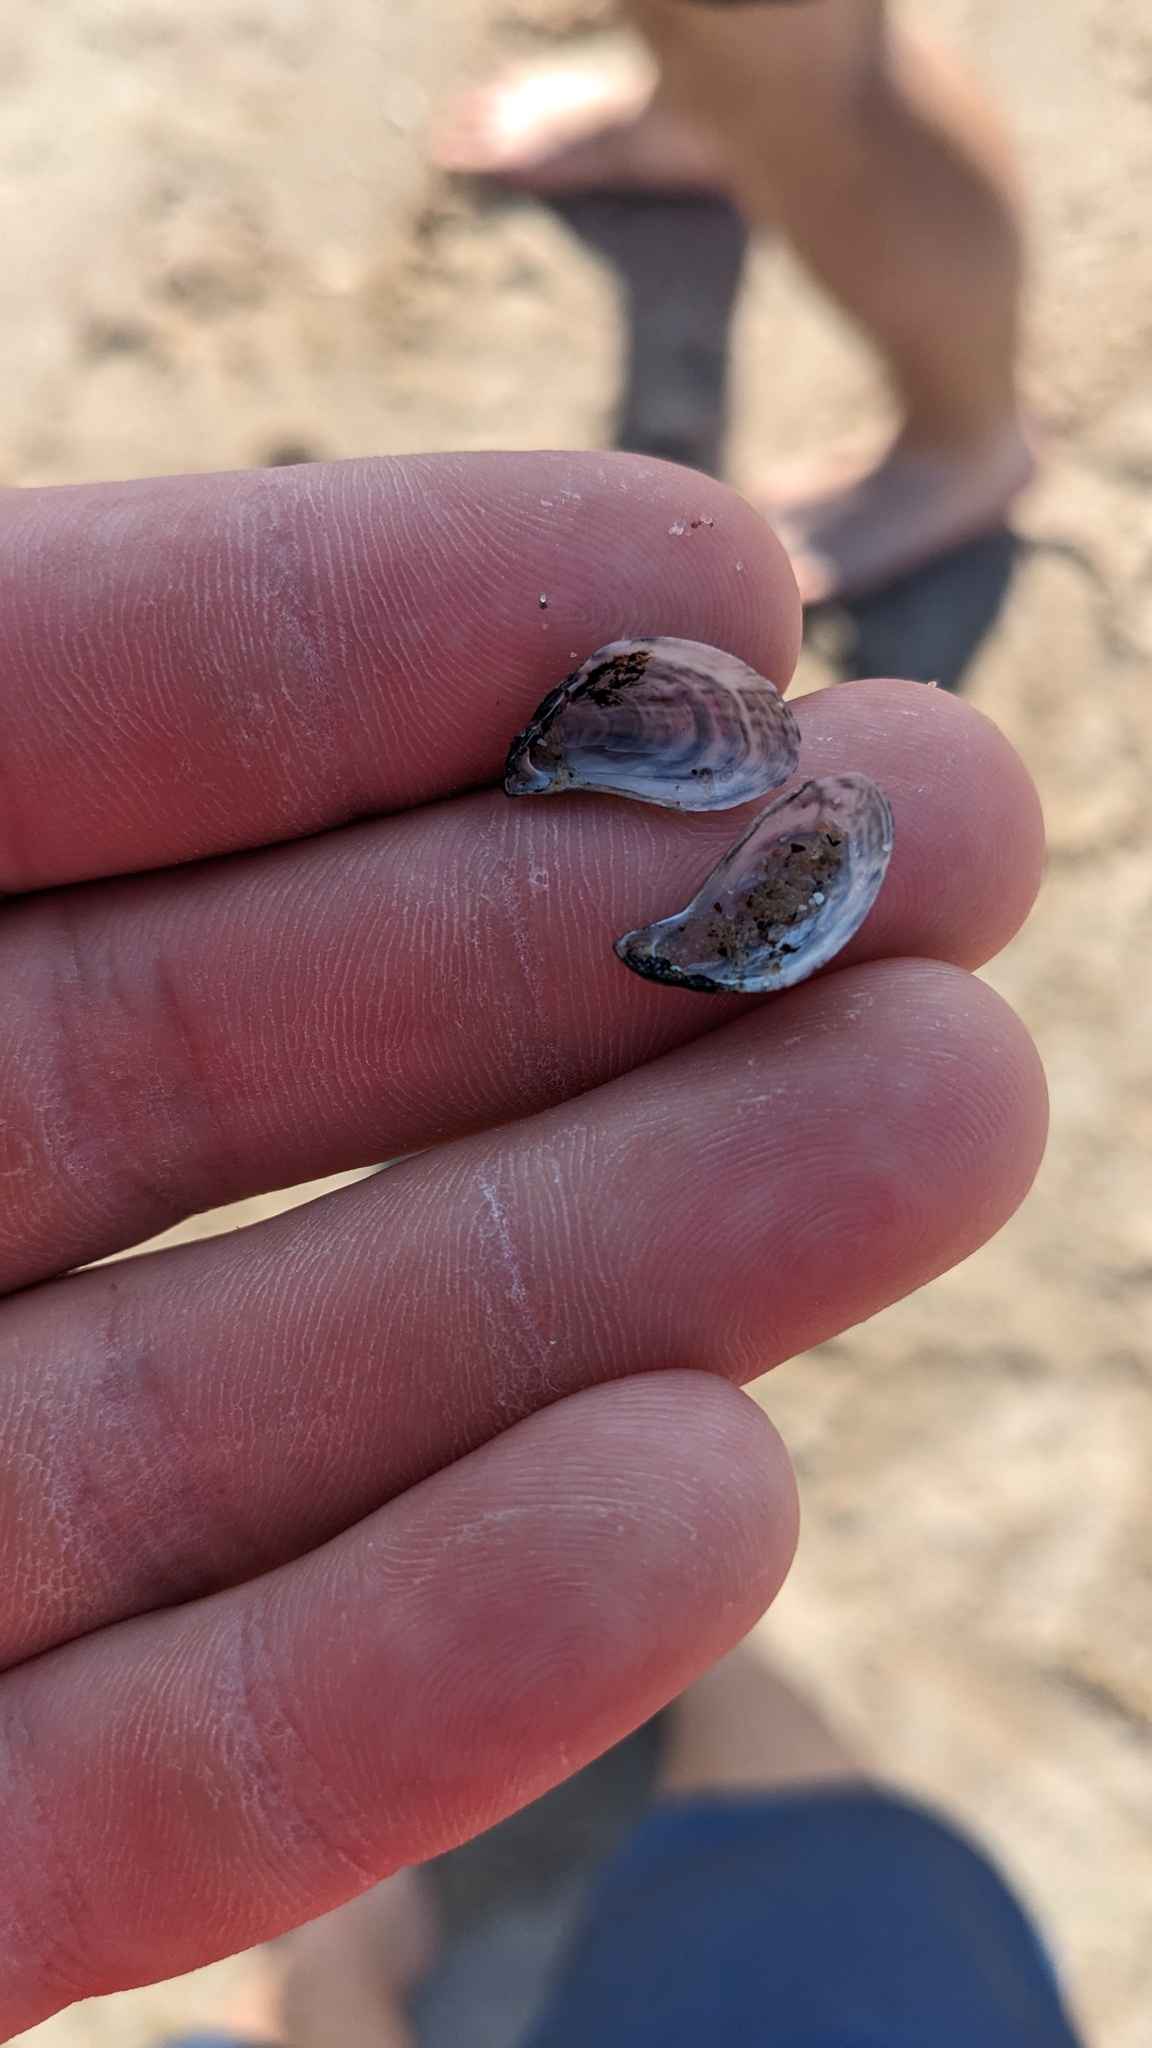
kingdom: Animalia
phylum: Mollusca
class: Bivalvia
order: Myida
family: Dreissenidae
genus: Dreissena
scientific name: Dreissena bugensis
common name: Quagga mussel
